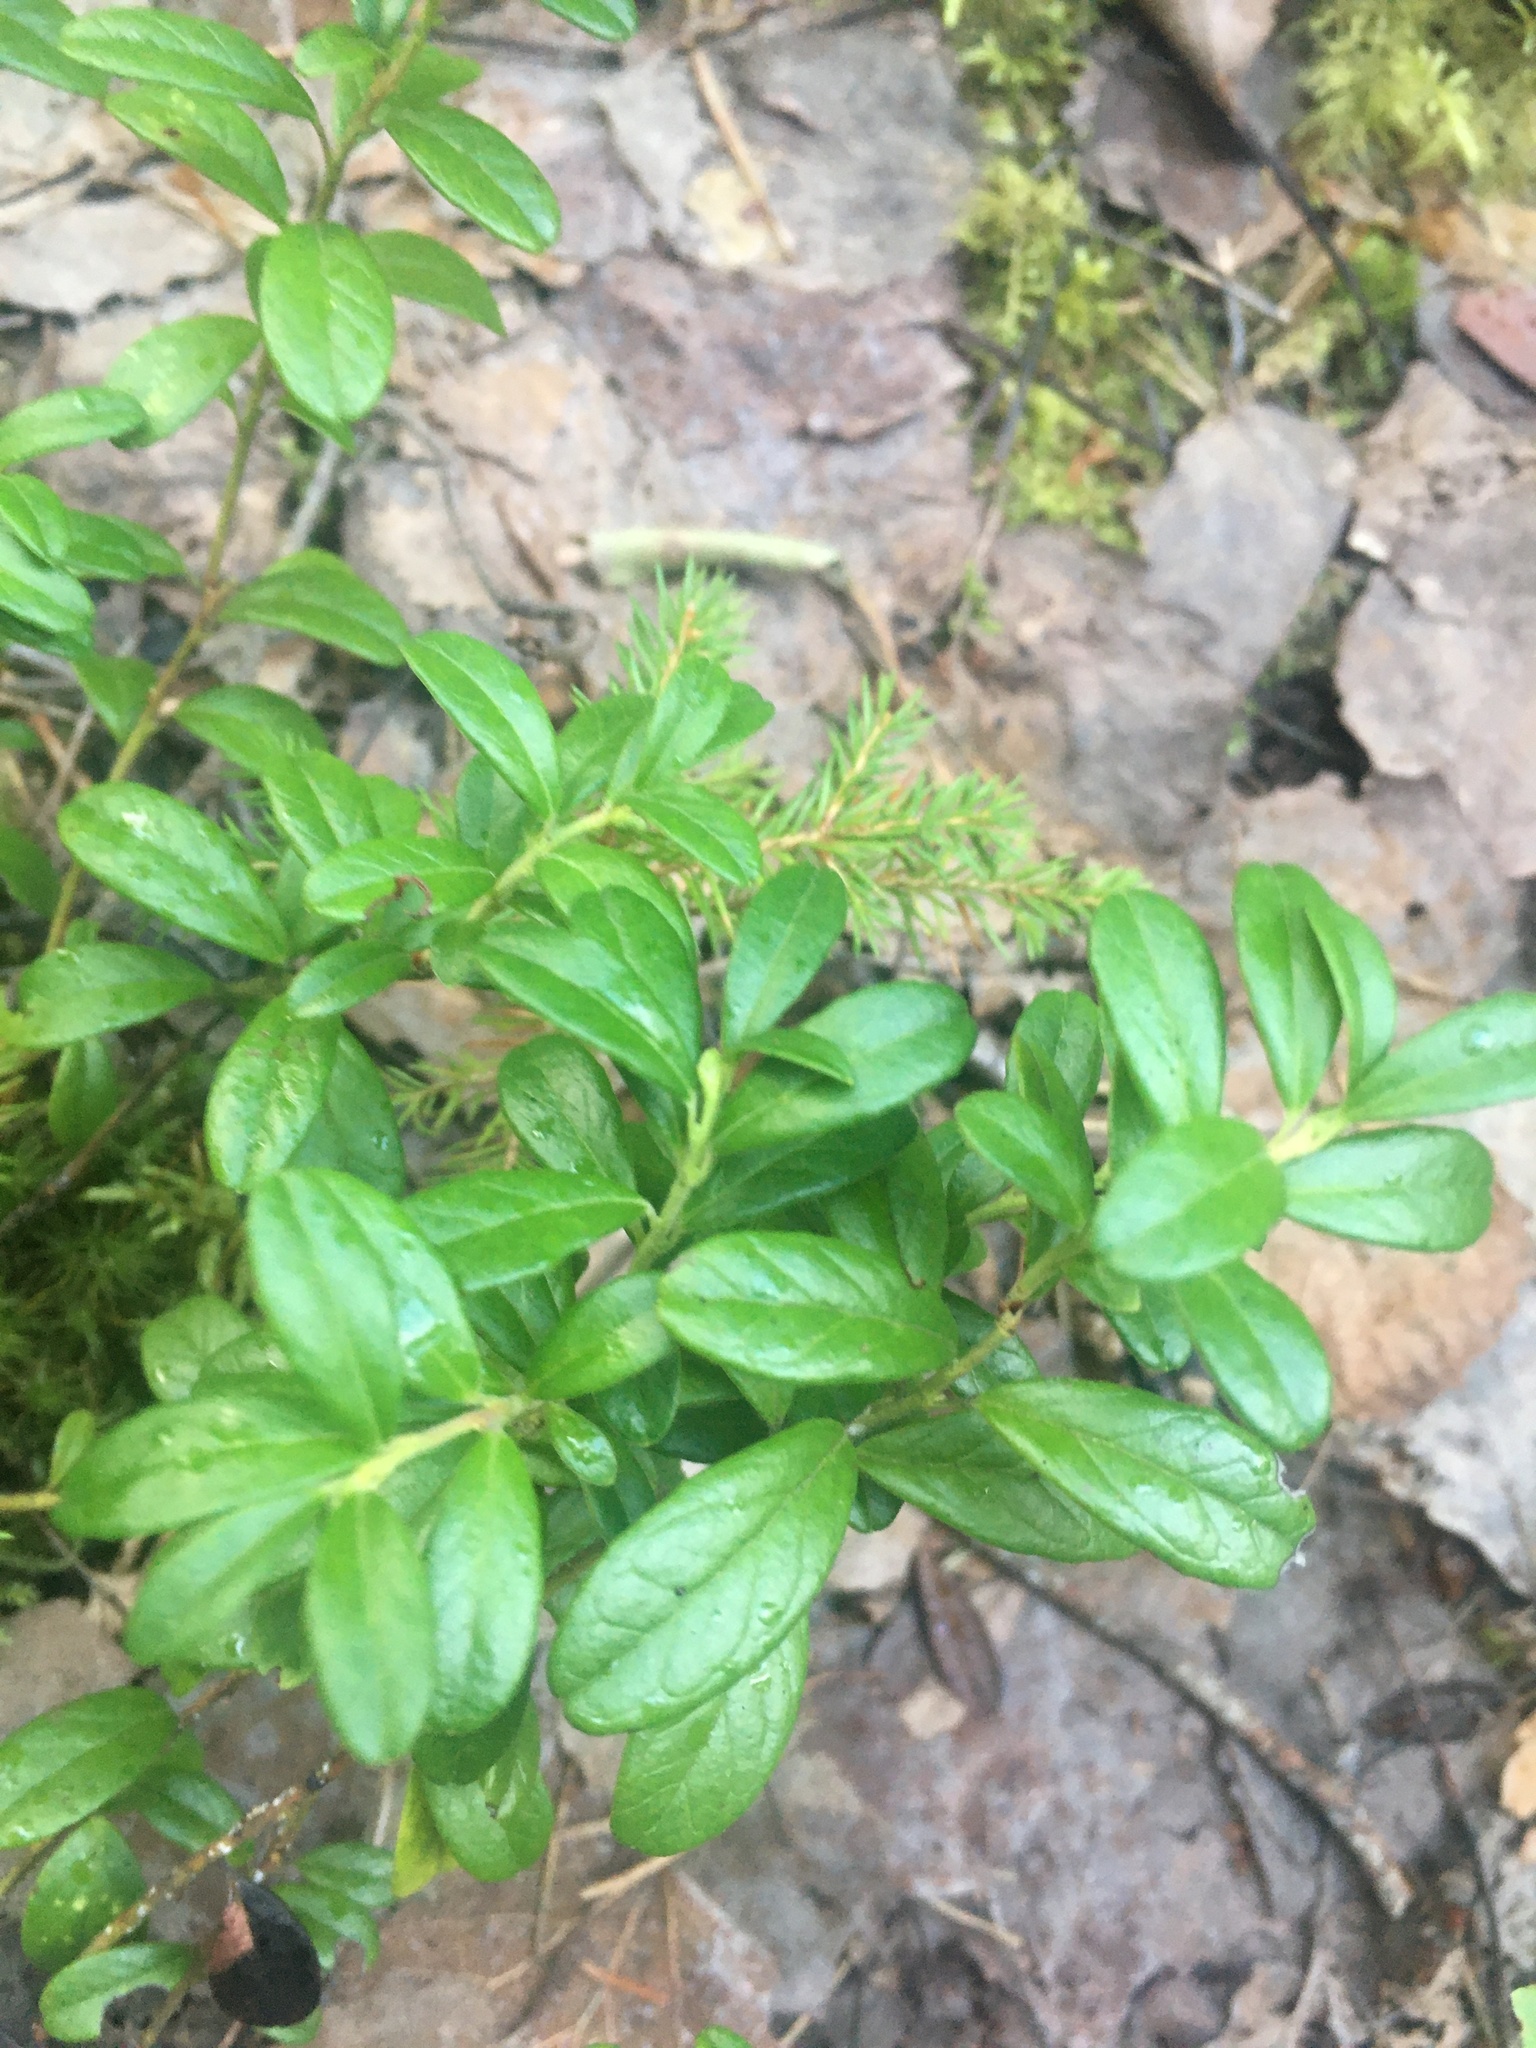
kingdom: Plantae
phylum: Tracheophyta
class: Magnoliopsida
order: Ericales
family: Ericaceae
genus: Vaccinium
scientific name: Vaccinium vitis-idaea
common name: Cowberry
